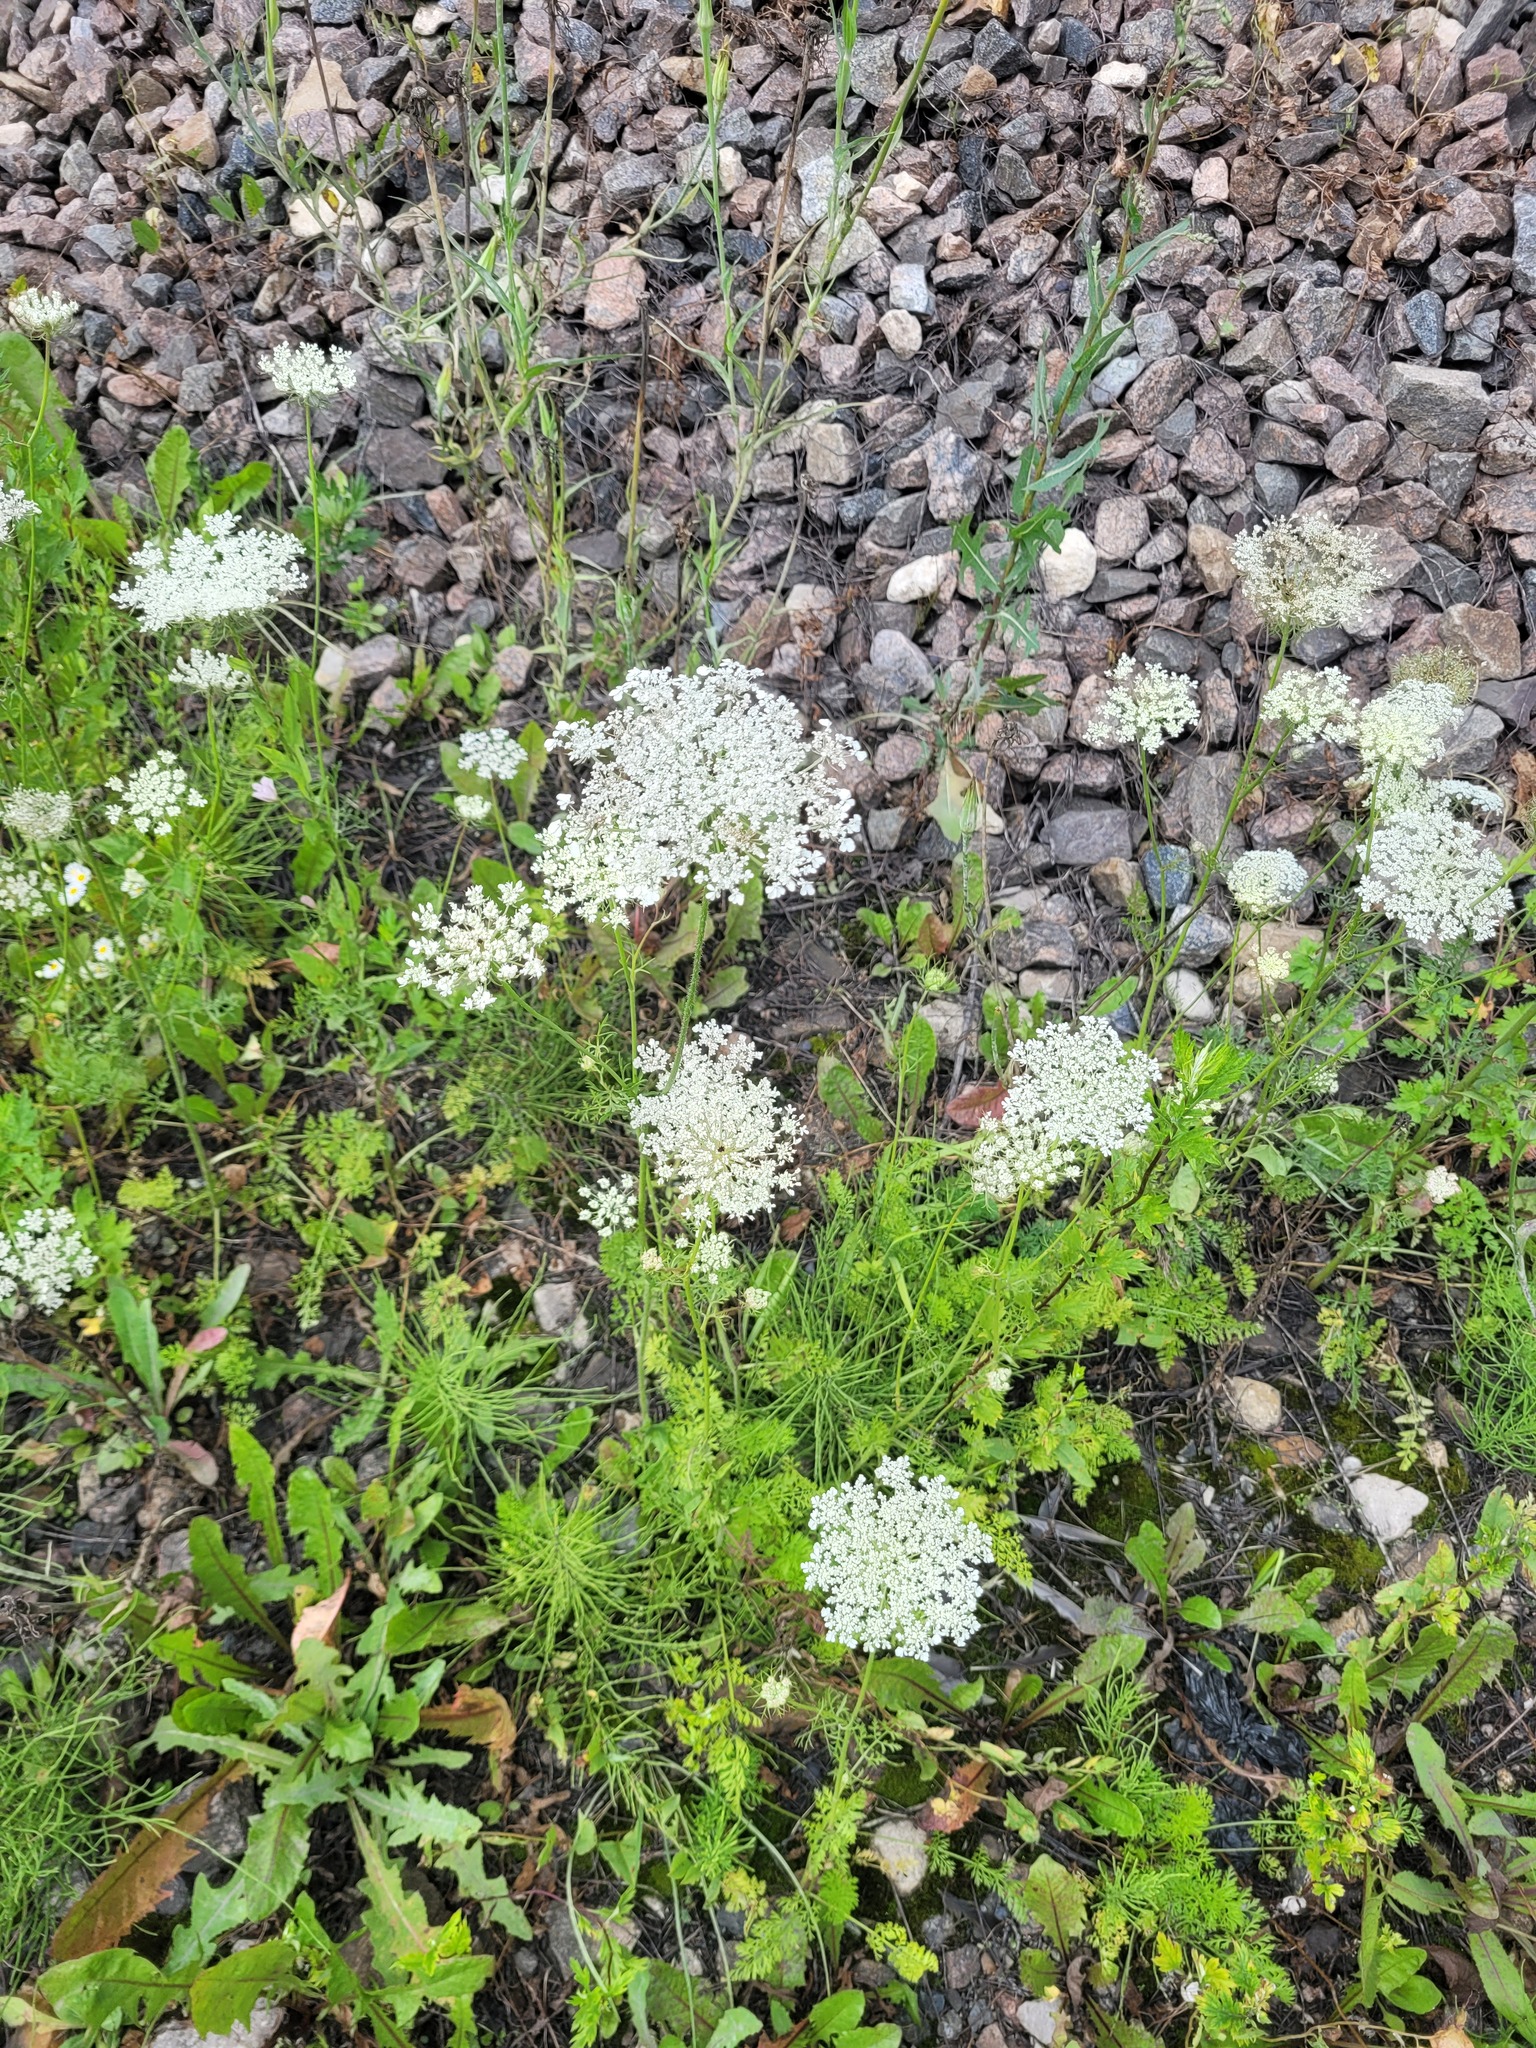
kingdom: Plantae
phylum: Tracheophyta
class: Magnoliopsida
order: Apiales
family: Apiaceae
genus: Daucus
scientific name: Daucus carota
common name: Wild carrot
